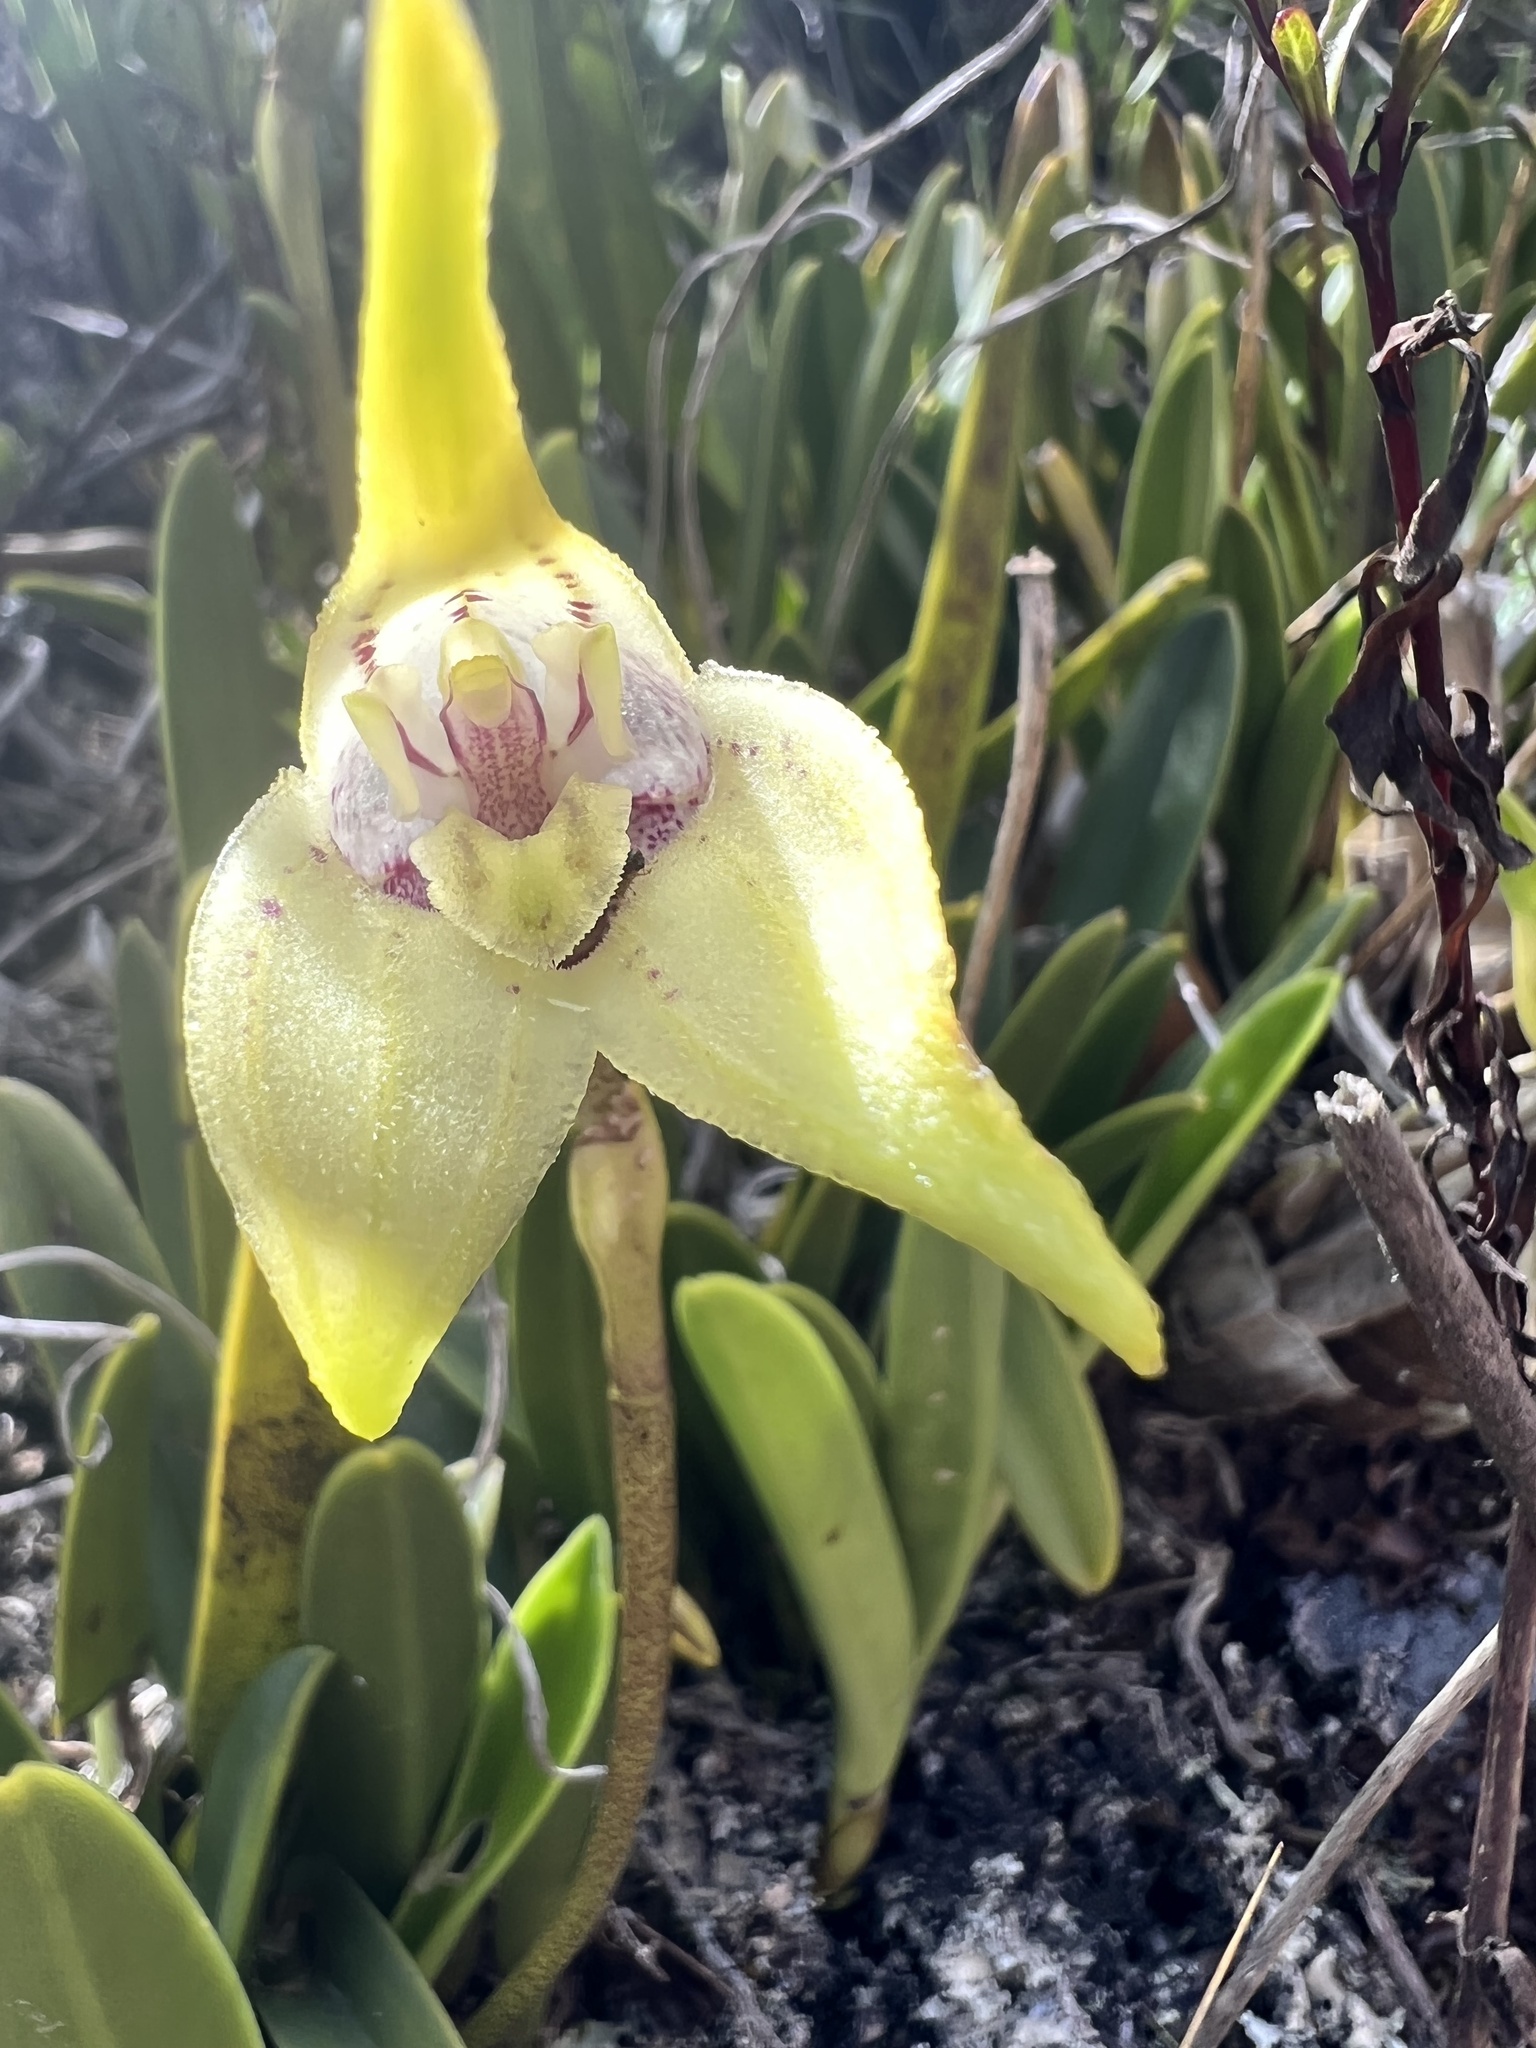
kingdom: Plantae
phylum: Tracheophyta
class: Liliopsida
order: Asparagales
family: Orchidaceae
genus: Masdevallia
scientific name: Masdevallia coriacea
